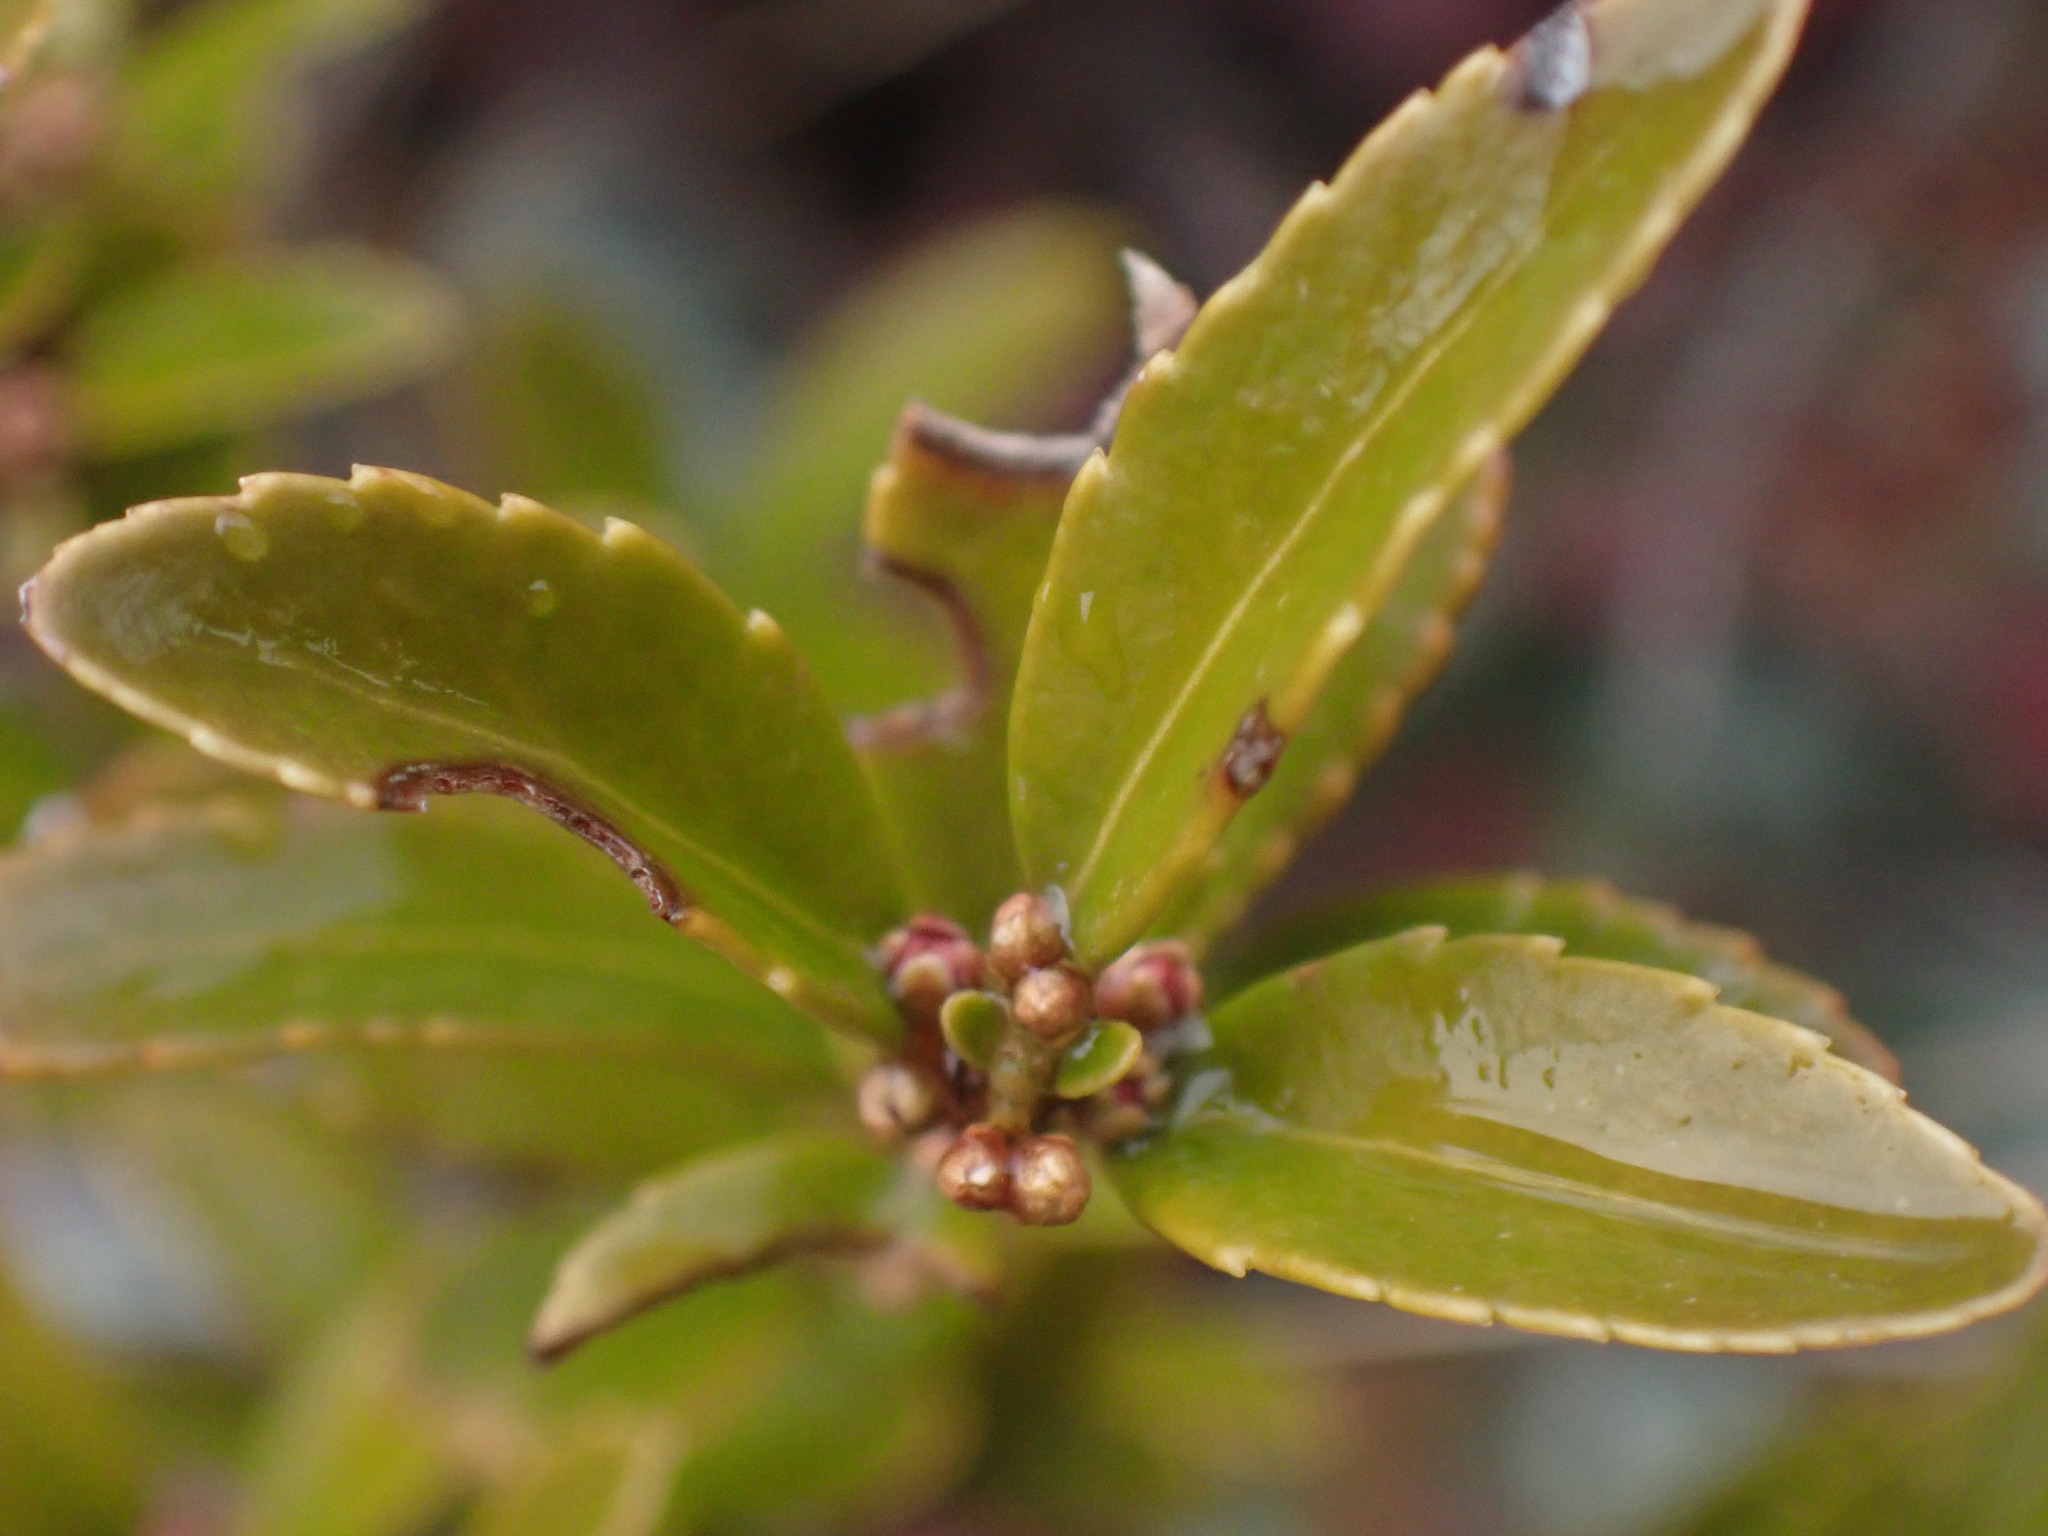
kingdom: Plantae
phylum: Tracheophyta
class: Magnoliopsida
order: Celastrales
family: Celastraceae
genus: Paxistima
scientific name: Paxistima myrsinites
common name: Mountain-lover
